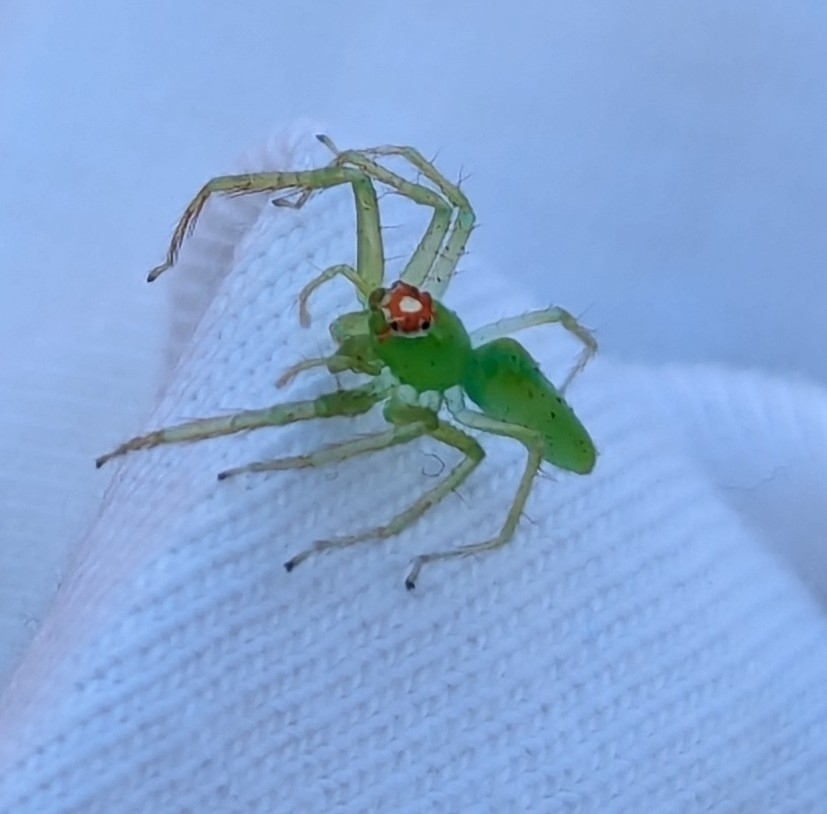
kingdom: Animalia
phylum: Arthropoda
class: Arachnida
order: Araneae
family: Salticidae
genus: Lyssomanes
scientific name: Lyssomanes viridis
